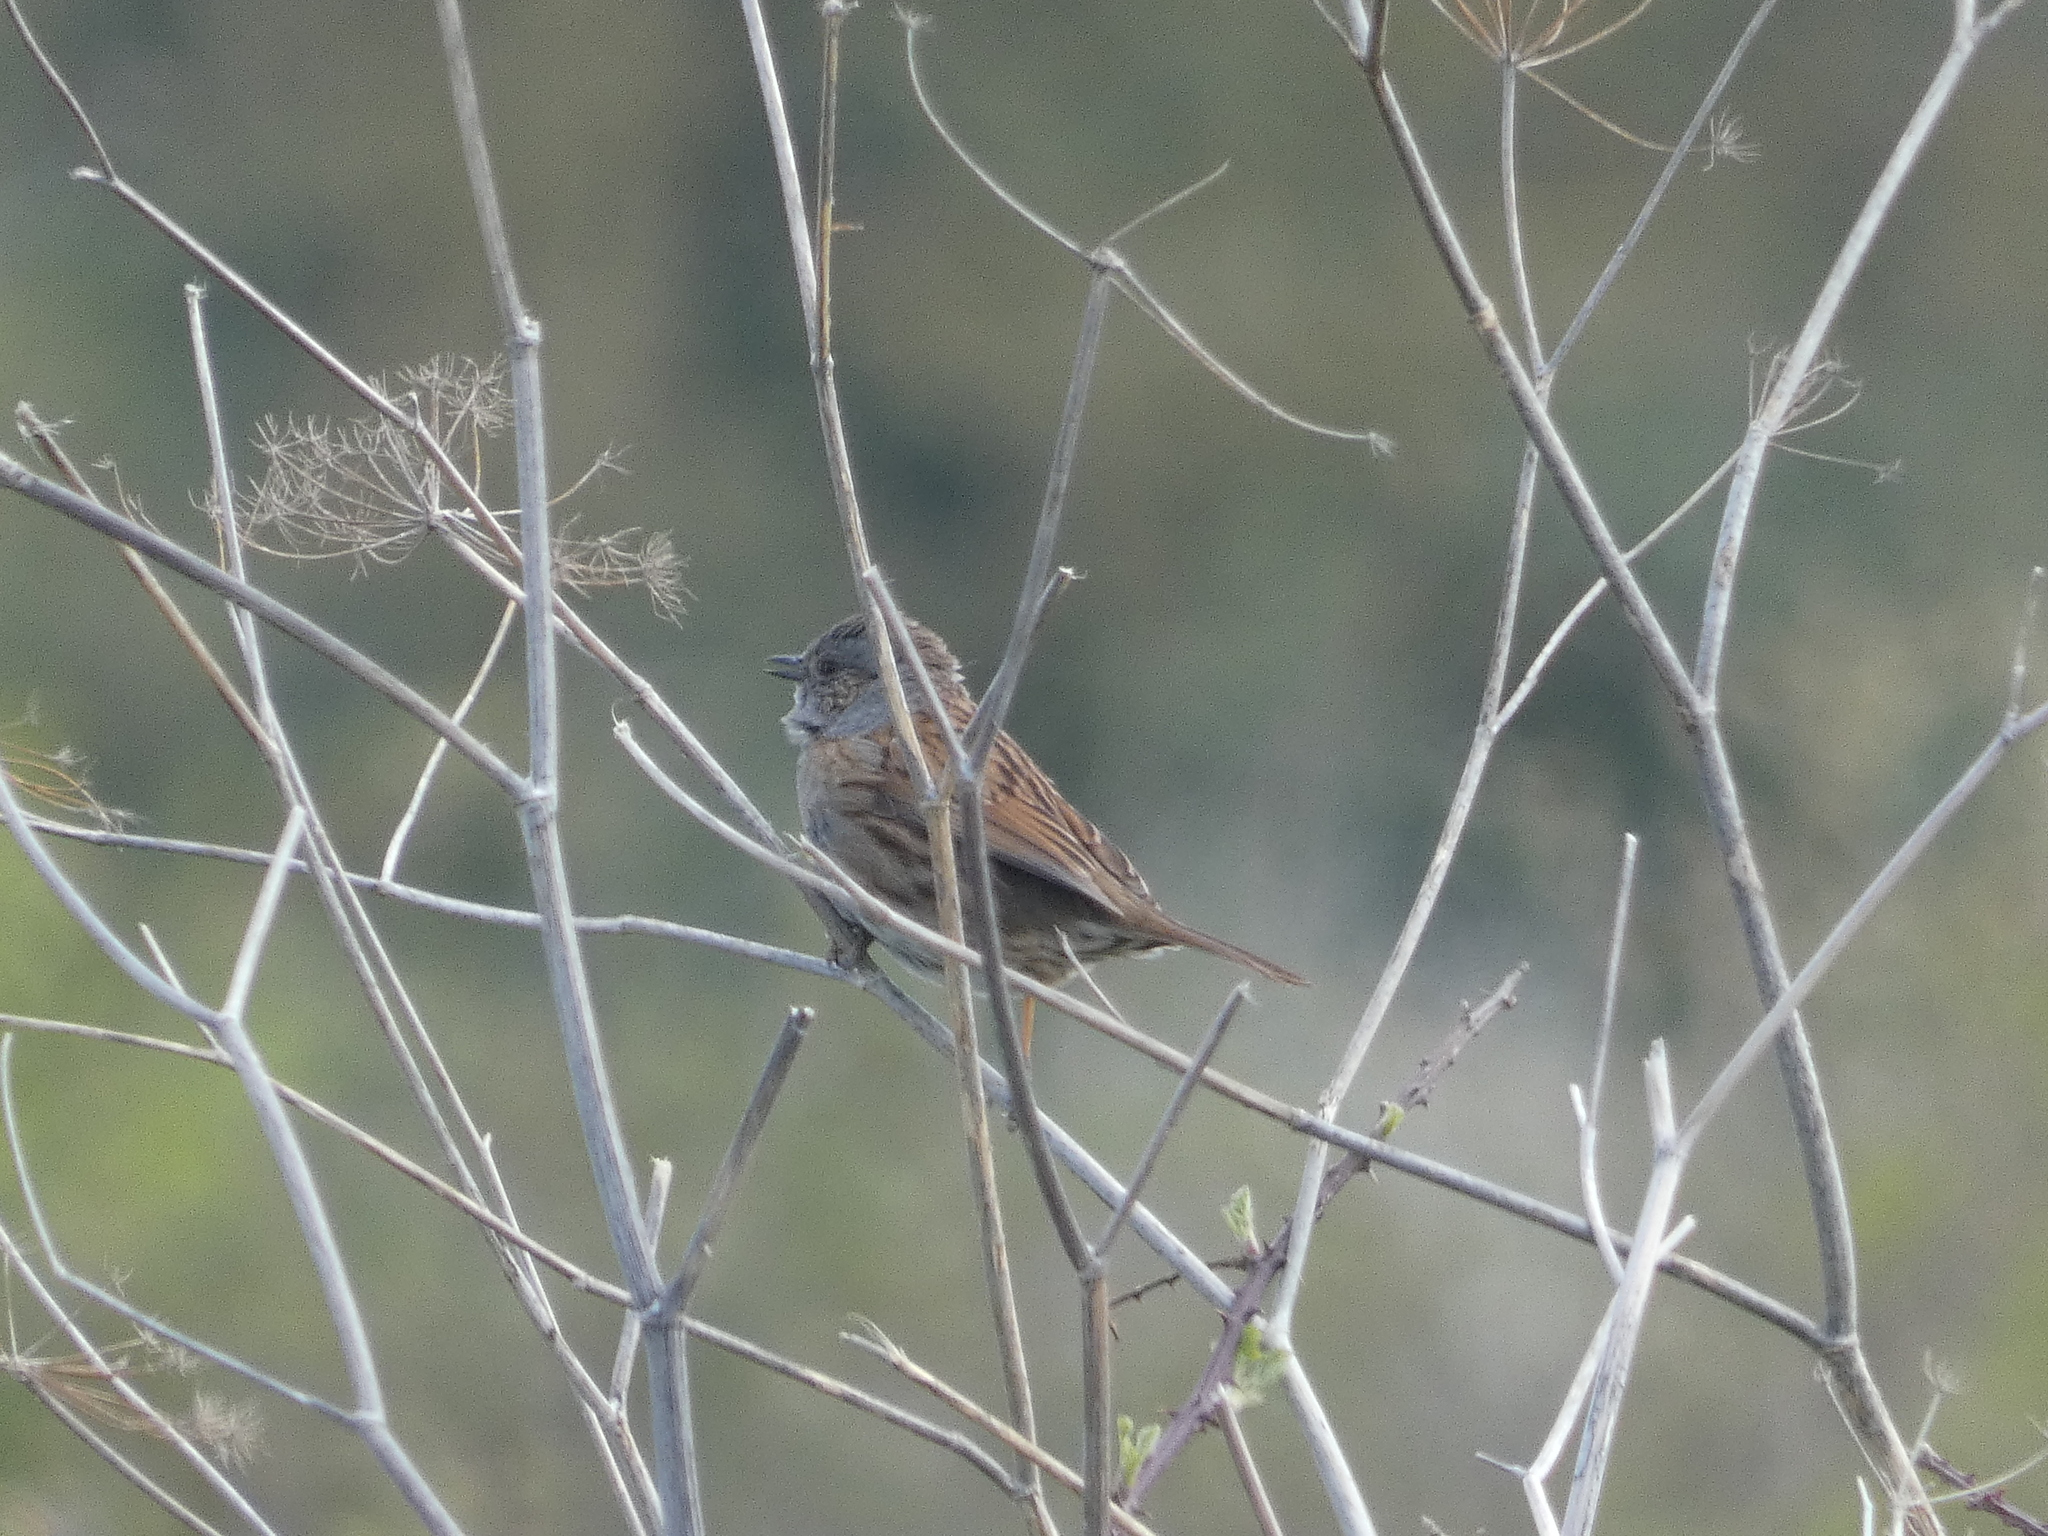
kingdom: Animalia
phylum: Chordata
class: Aves
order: Passeriformes
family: Prunellidae
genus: Prunella
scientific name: Prunella modularis
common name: Dunnock
